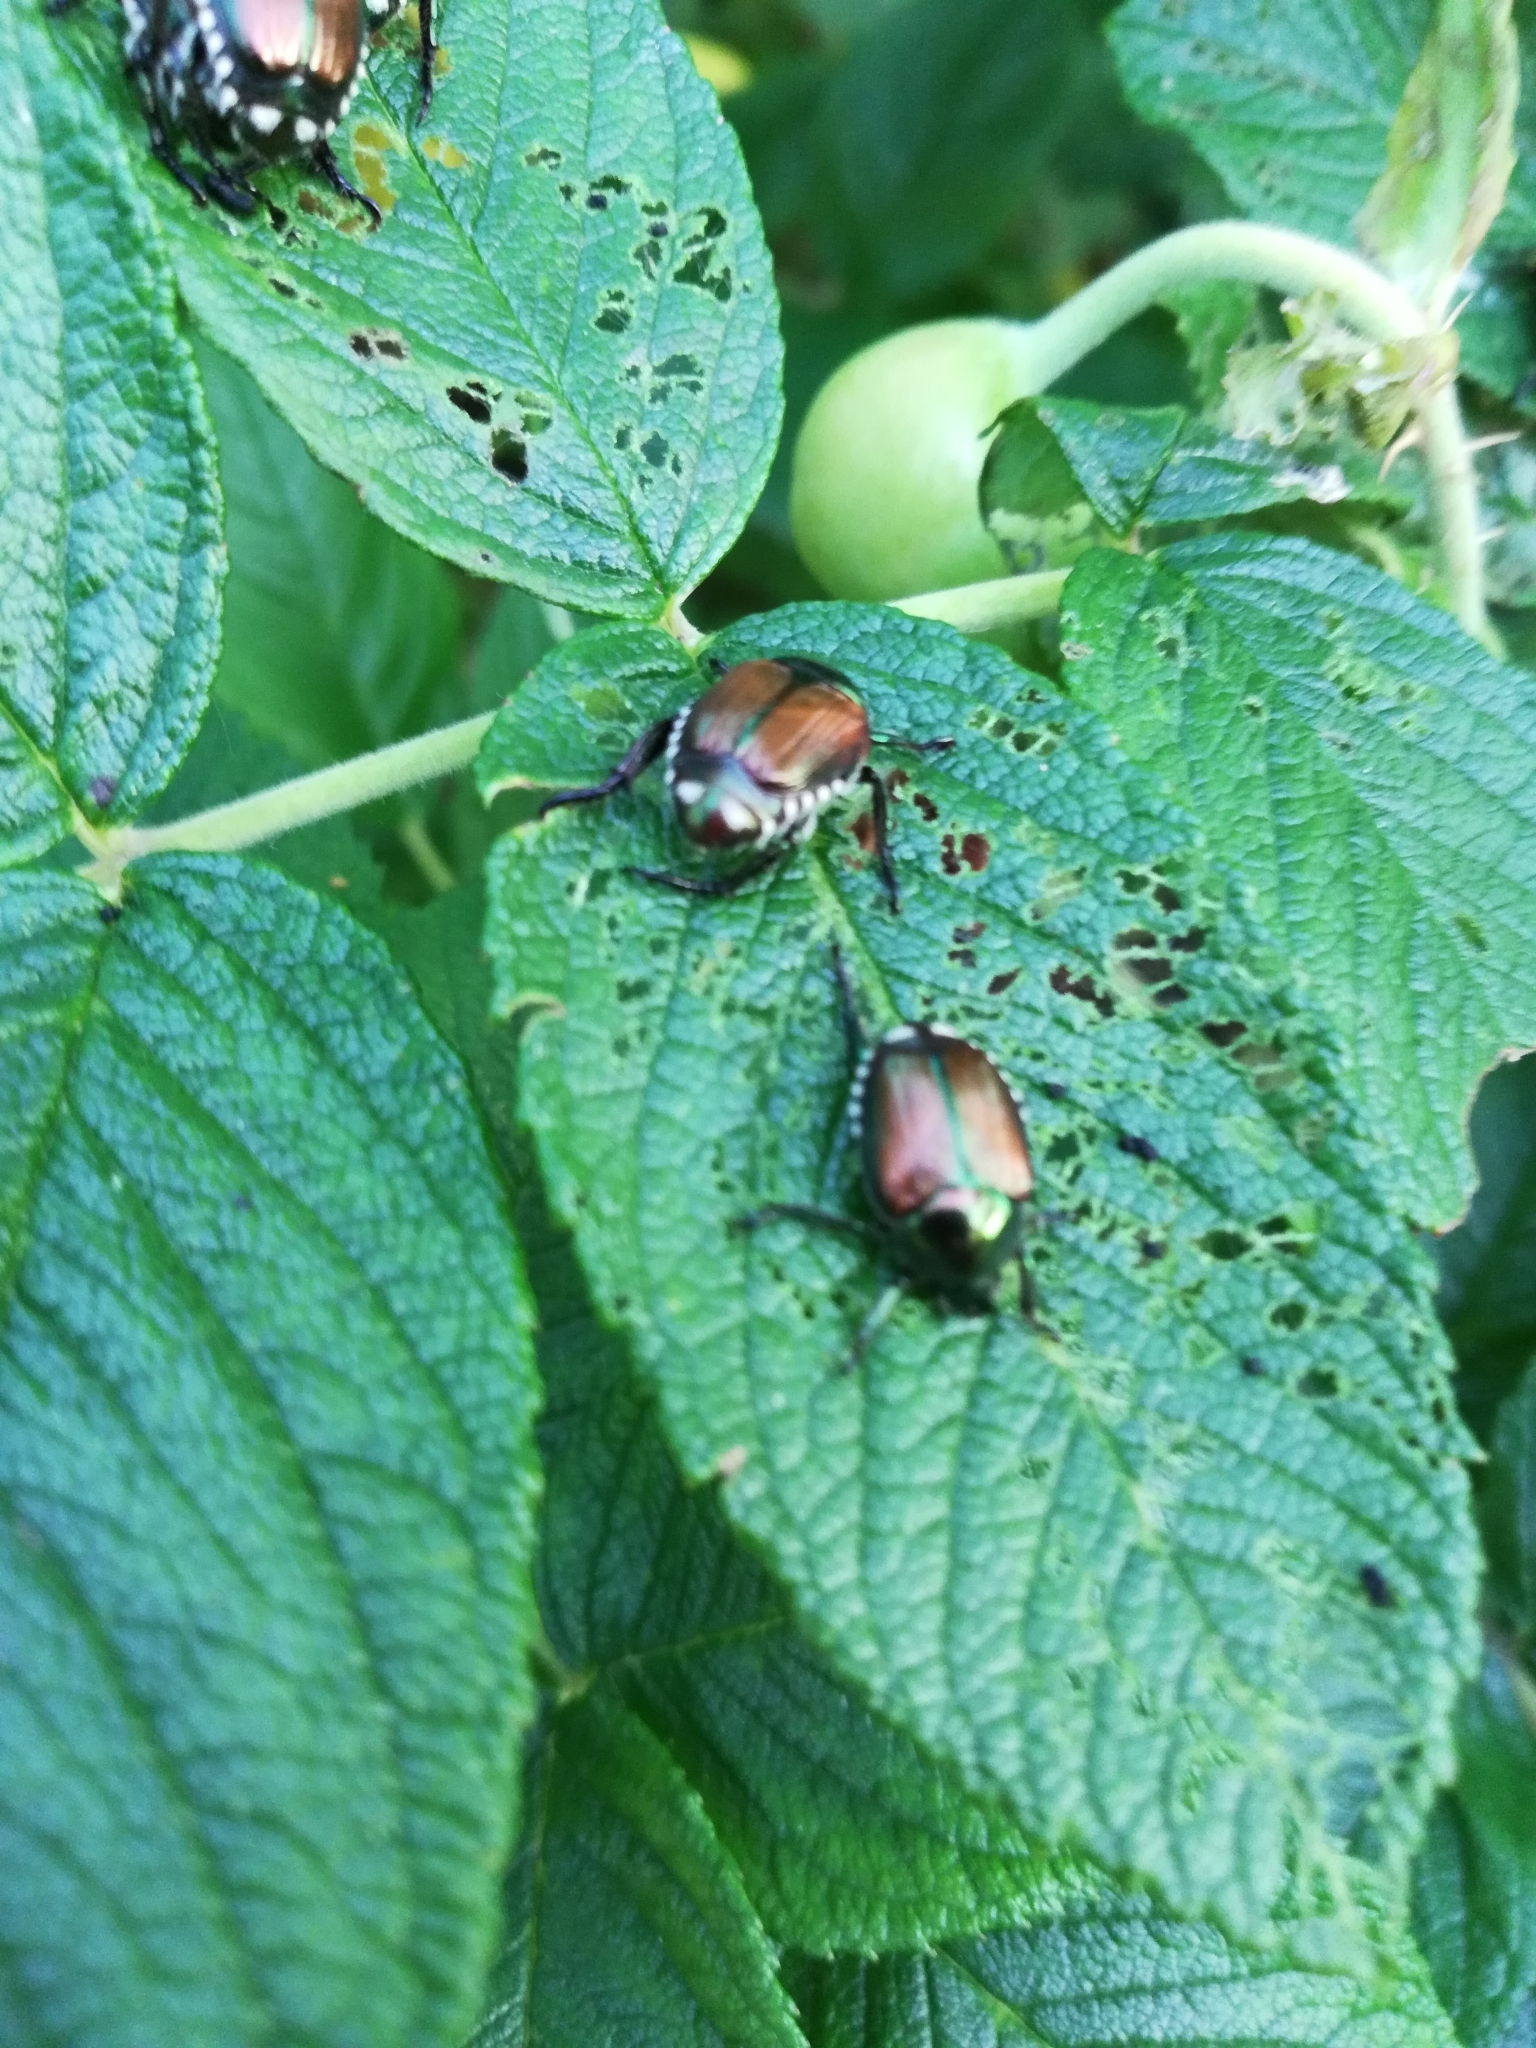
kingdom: Animalia
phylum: Arthropoda
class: Insecta
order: Coleoptera
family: Scarabaeidae
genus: Popillia
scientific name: Popillia japonica
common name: Japanese beetle
